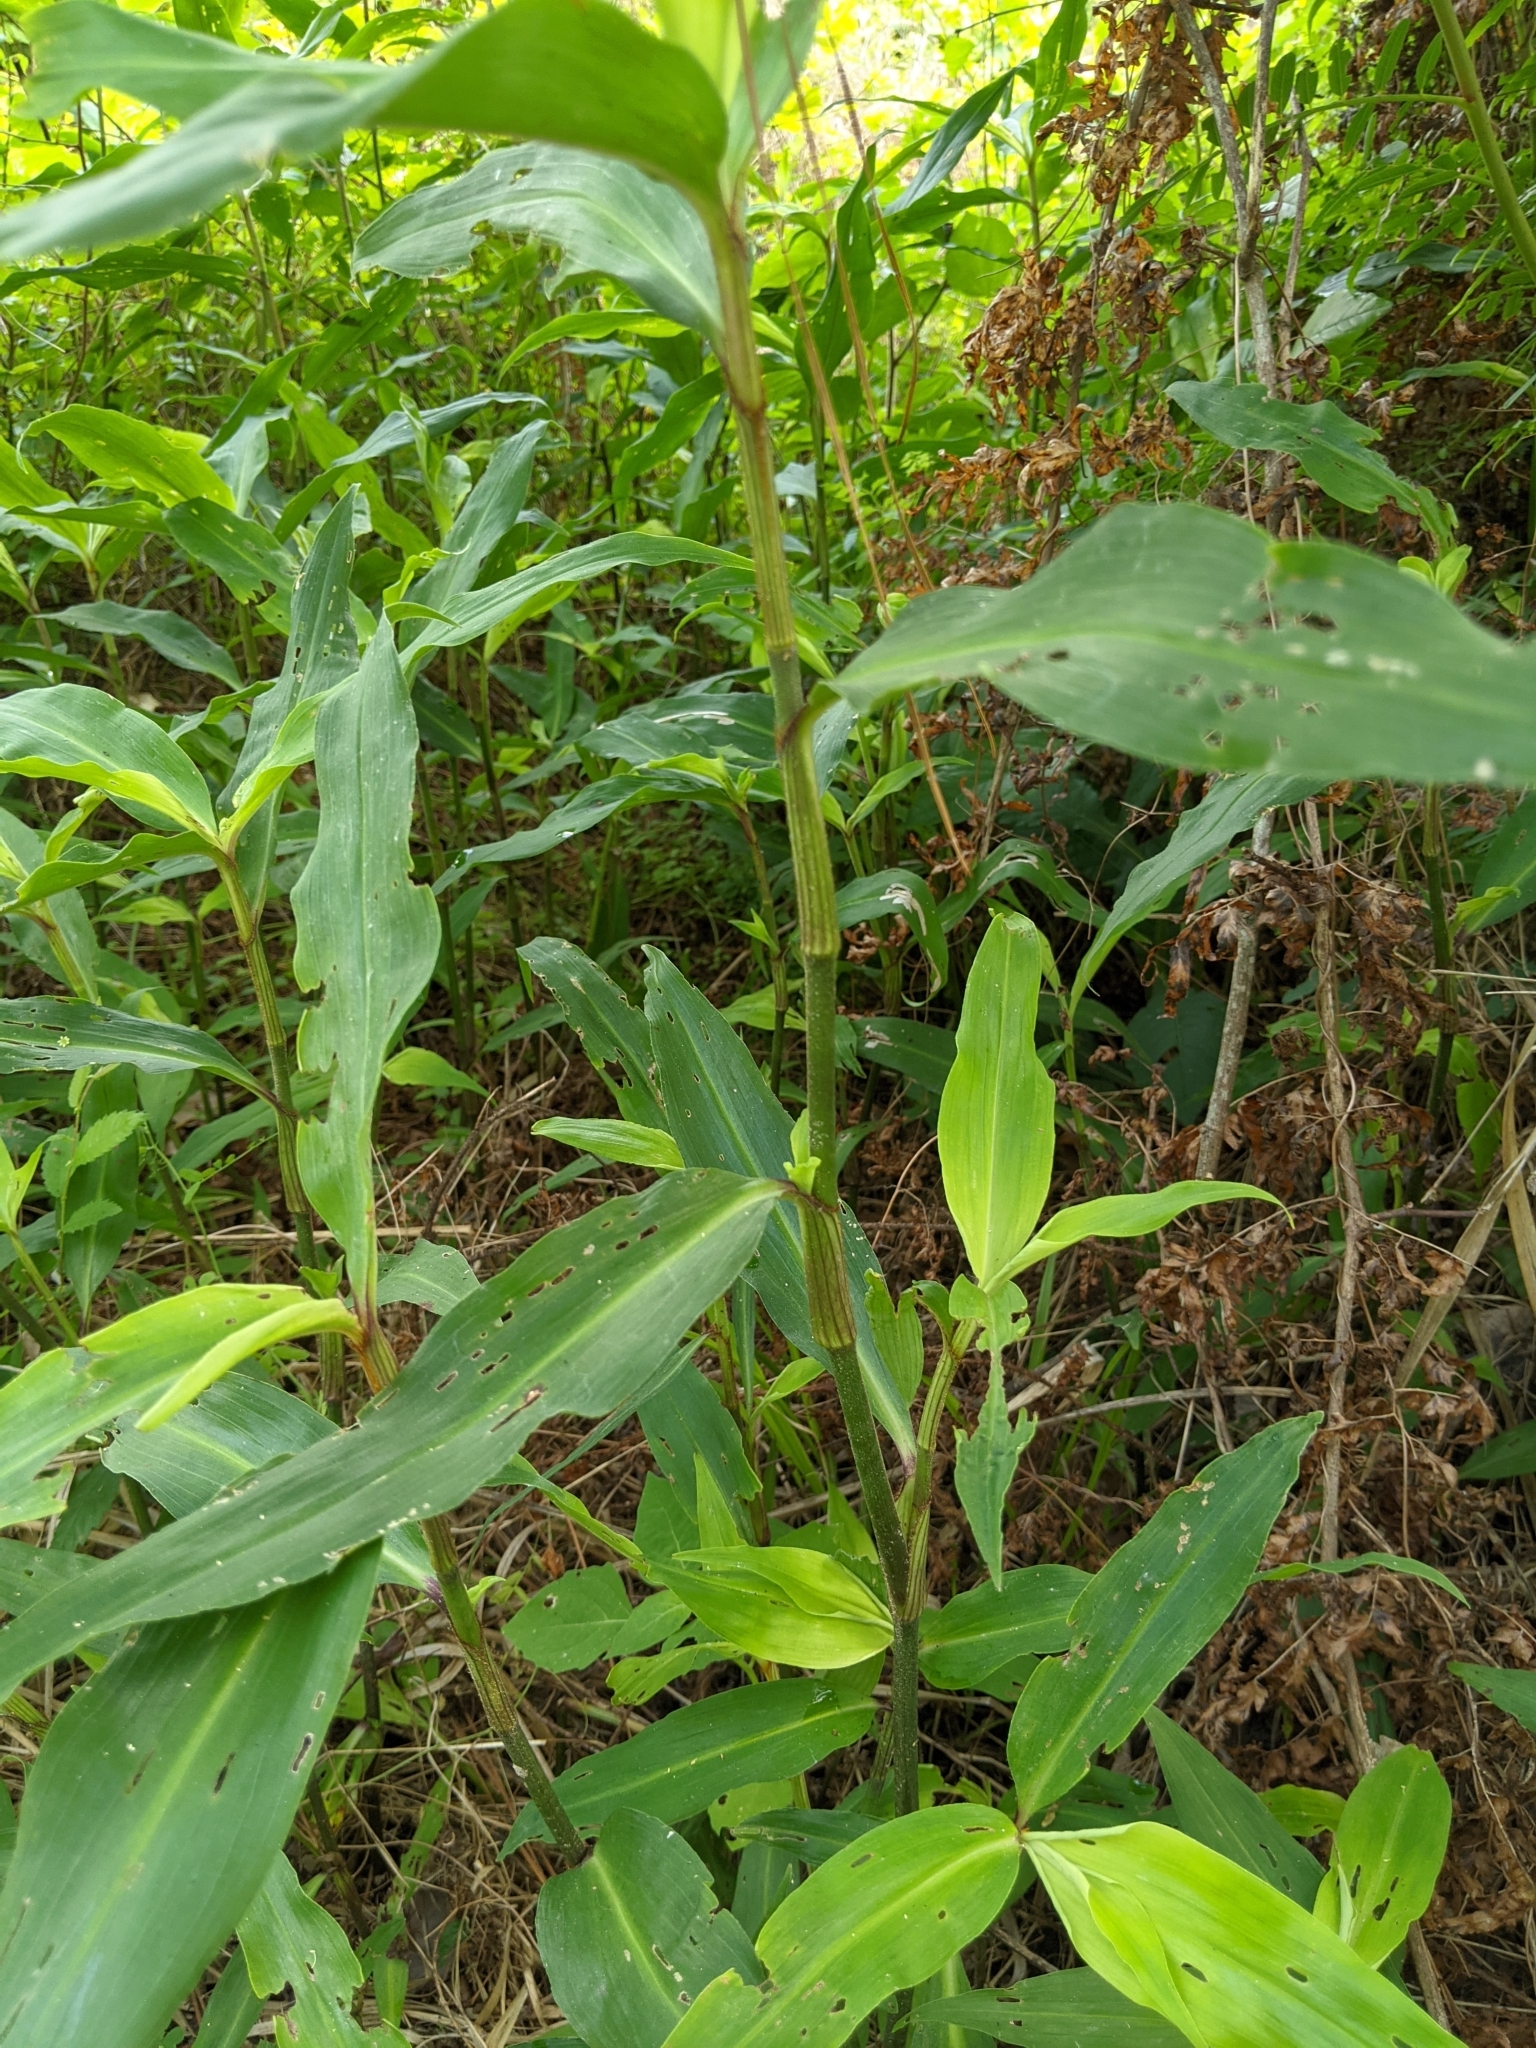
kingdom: Plantae
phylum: Tracheophyta
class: Liliopsida
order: Commelinales
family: Commelinaceae
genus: Commelina
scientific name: Commelina virginica
